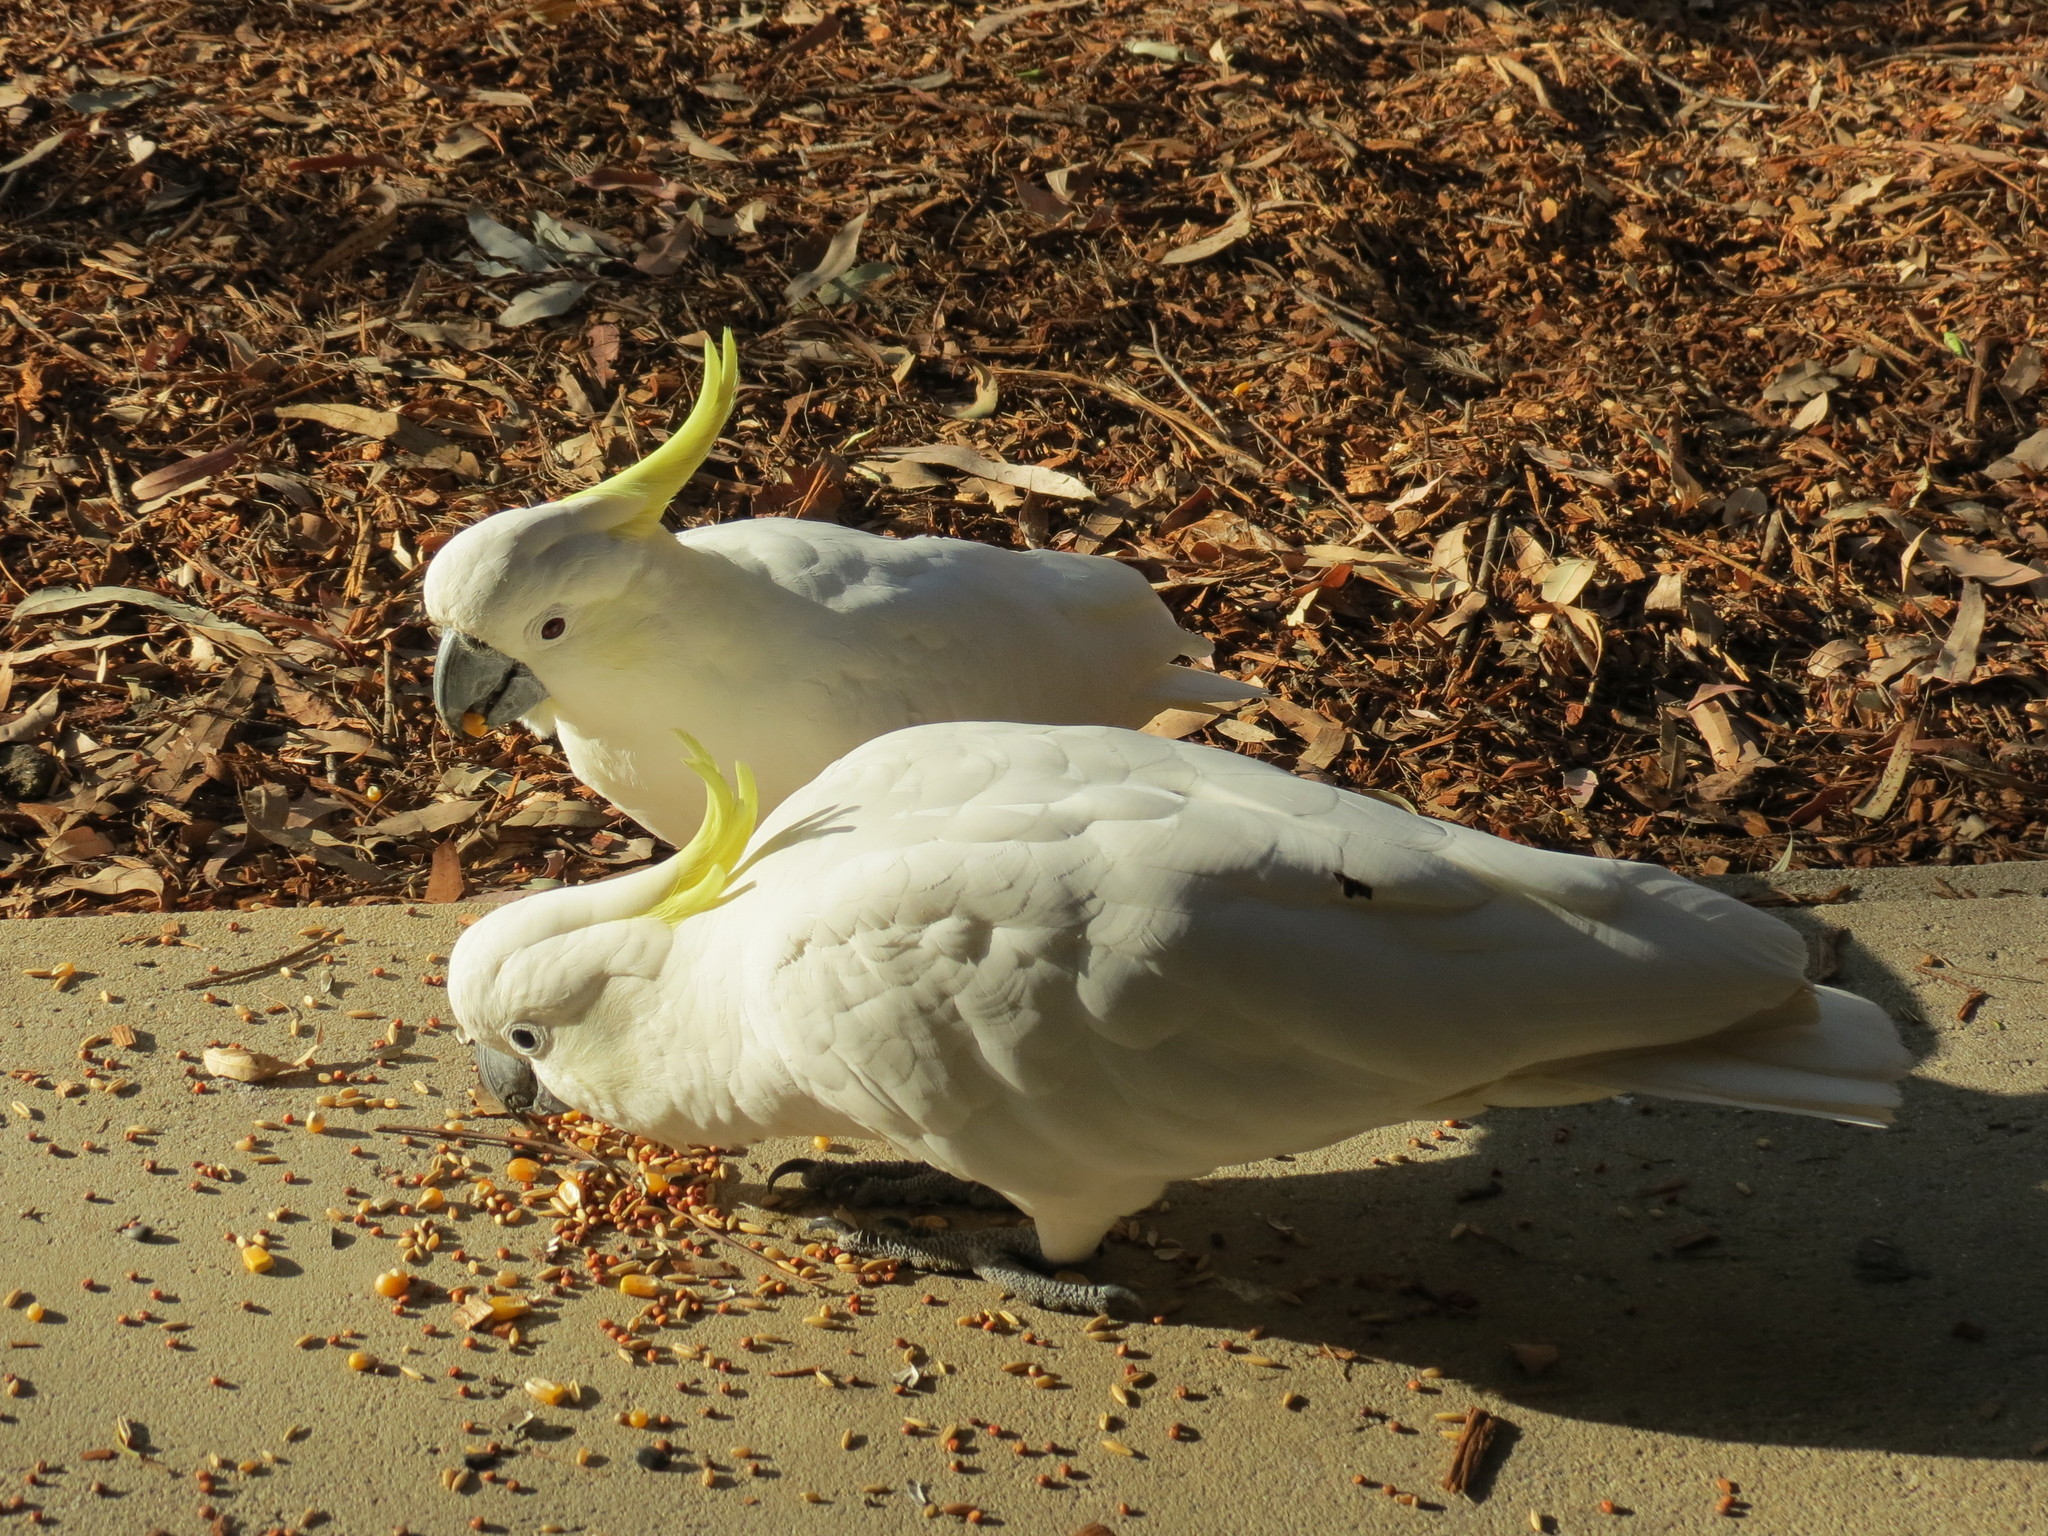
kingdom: Animalia
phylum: Chordata
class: Aves
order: Psittaciformes
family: Psittacidae
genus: Cacatua
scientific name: Cacatua galerita
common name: Sulphur-crested cockatoo
